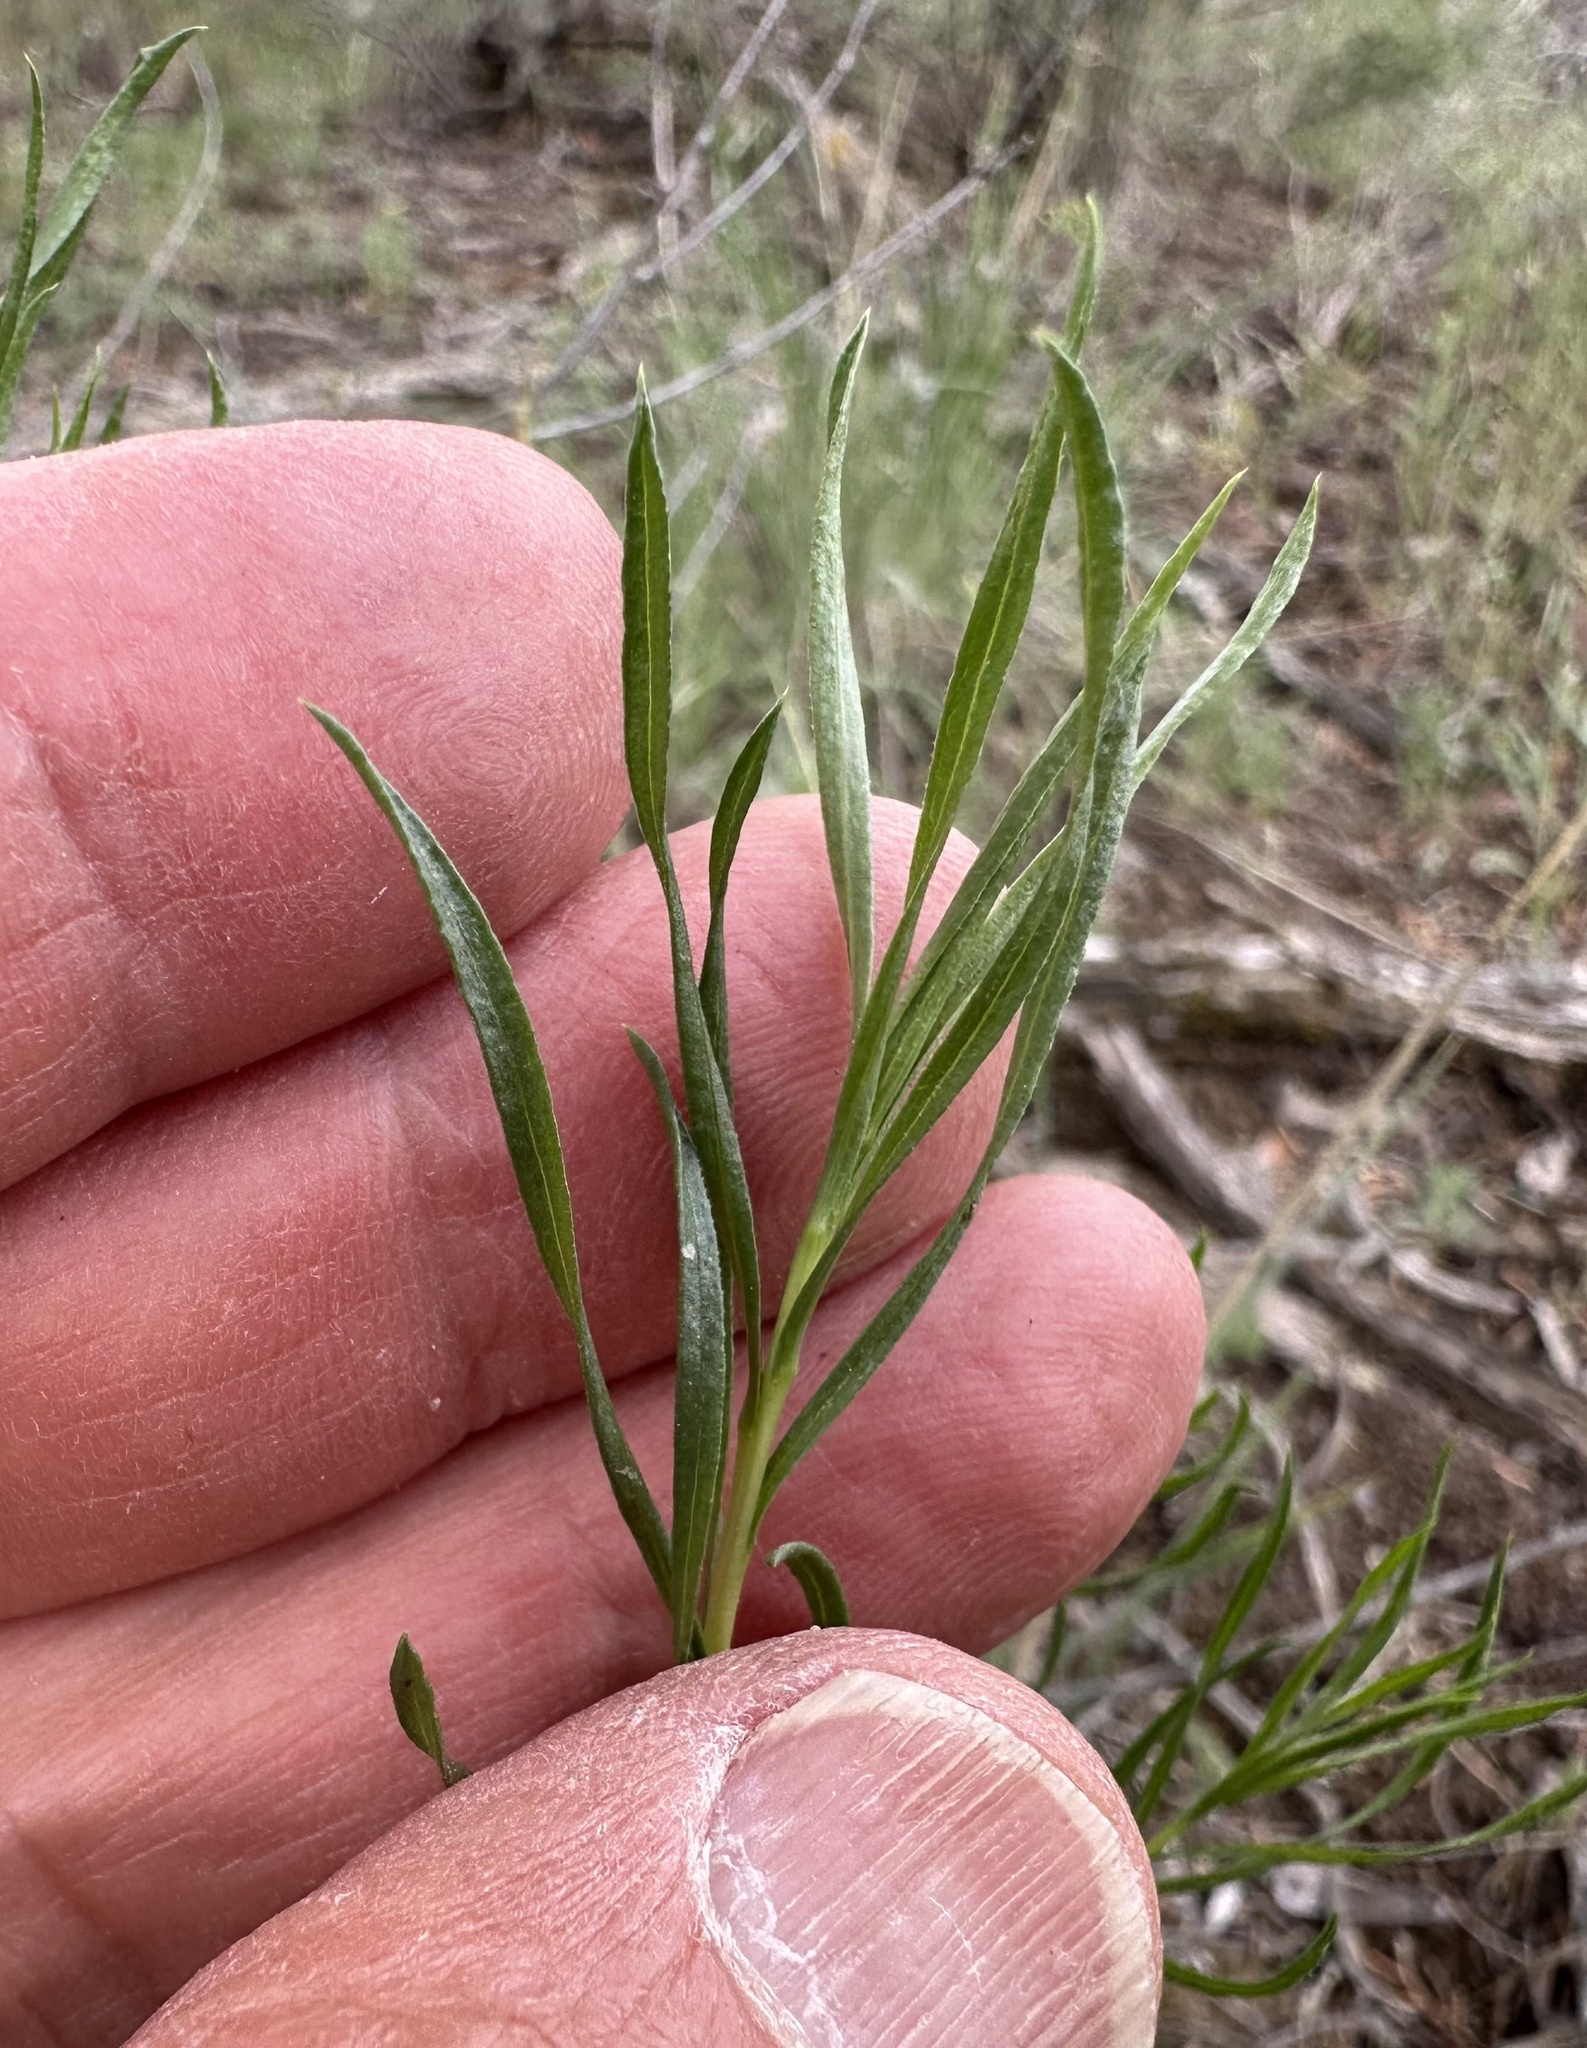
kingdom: Plantae
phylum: Tracheophyta
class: Magnoliopsida
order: Asterales
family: Asteraceae
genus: Chrysothamnus
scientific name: Chrysothamnus viscidiflorus
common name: Yellow rabbitbrush
